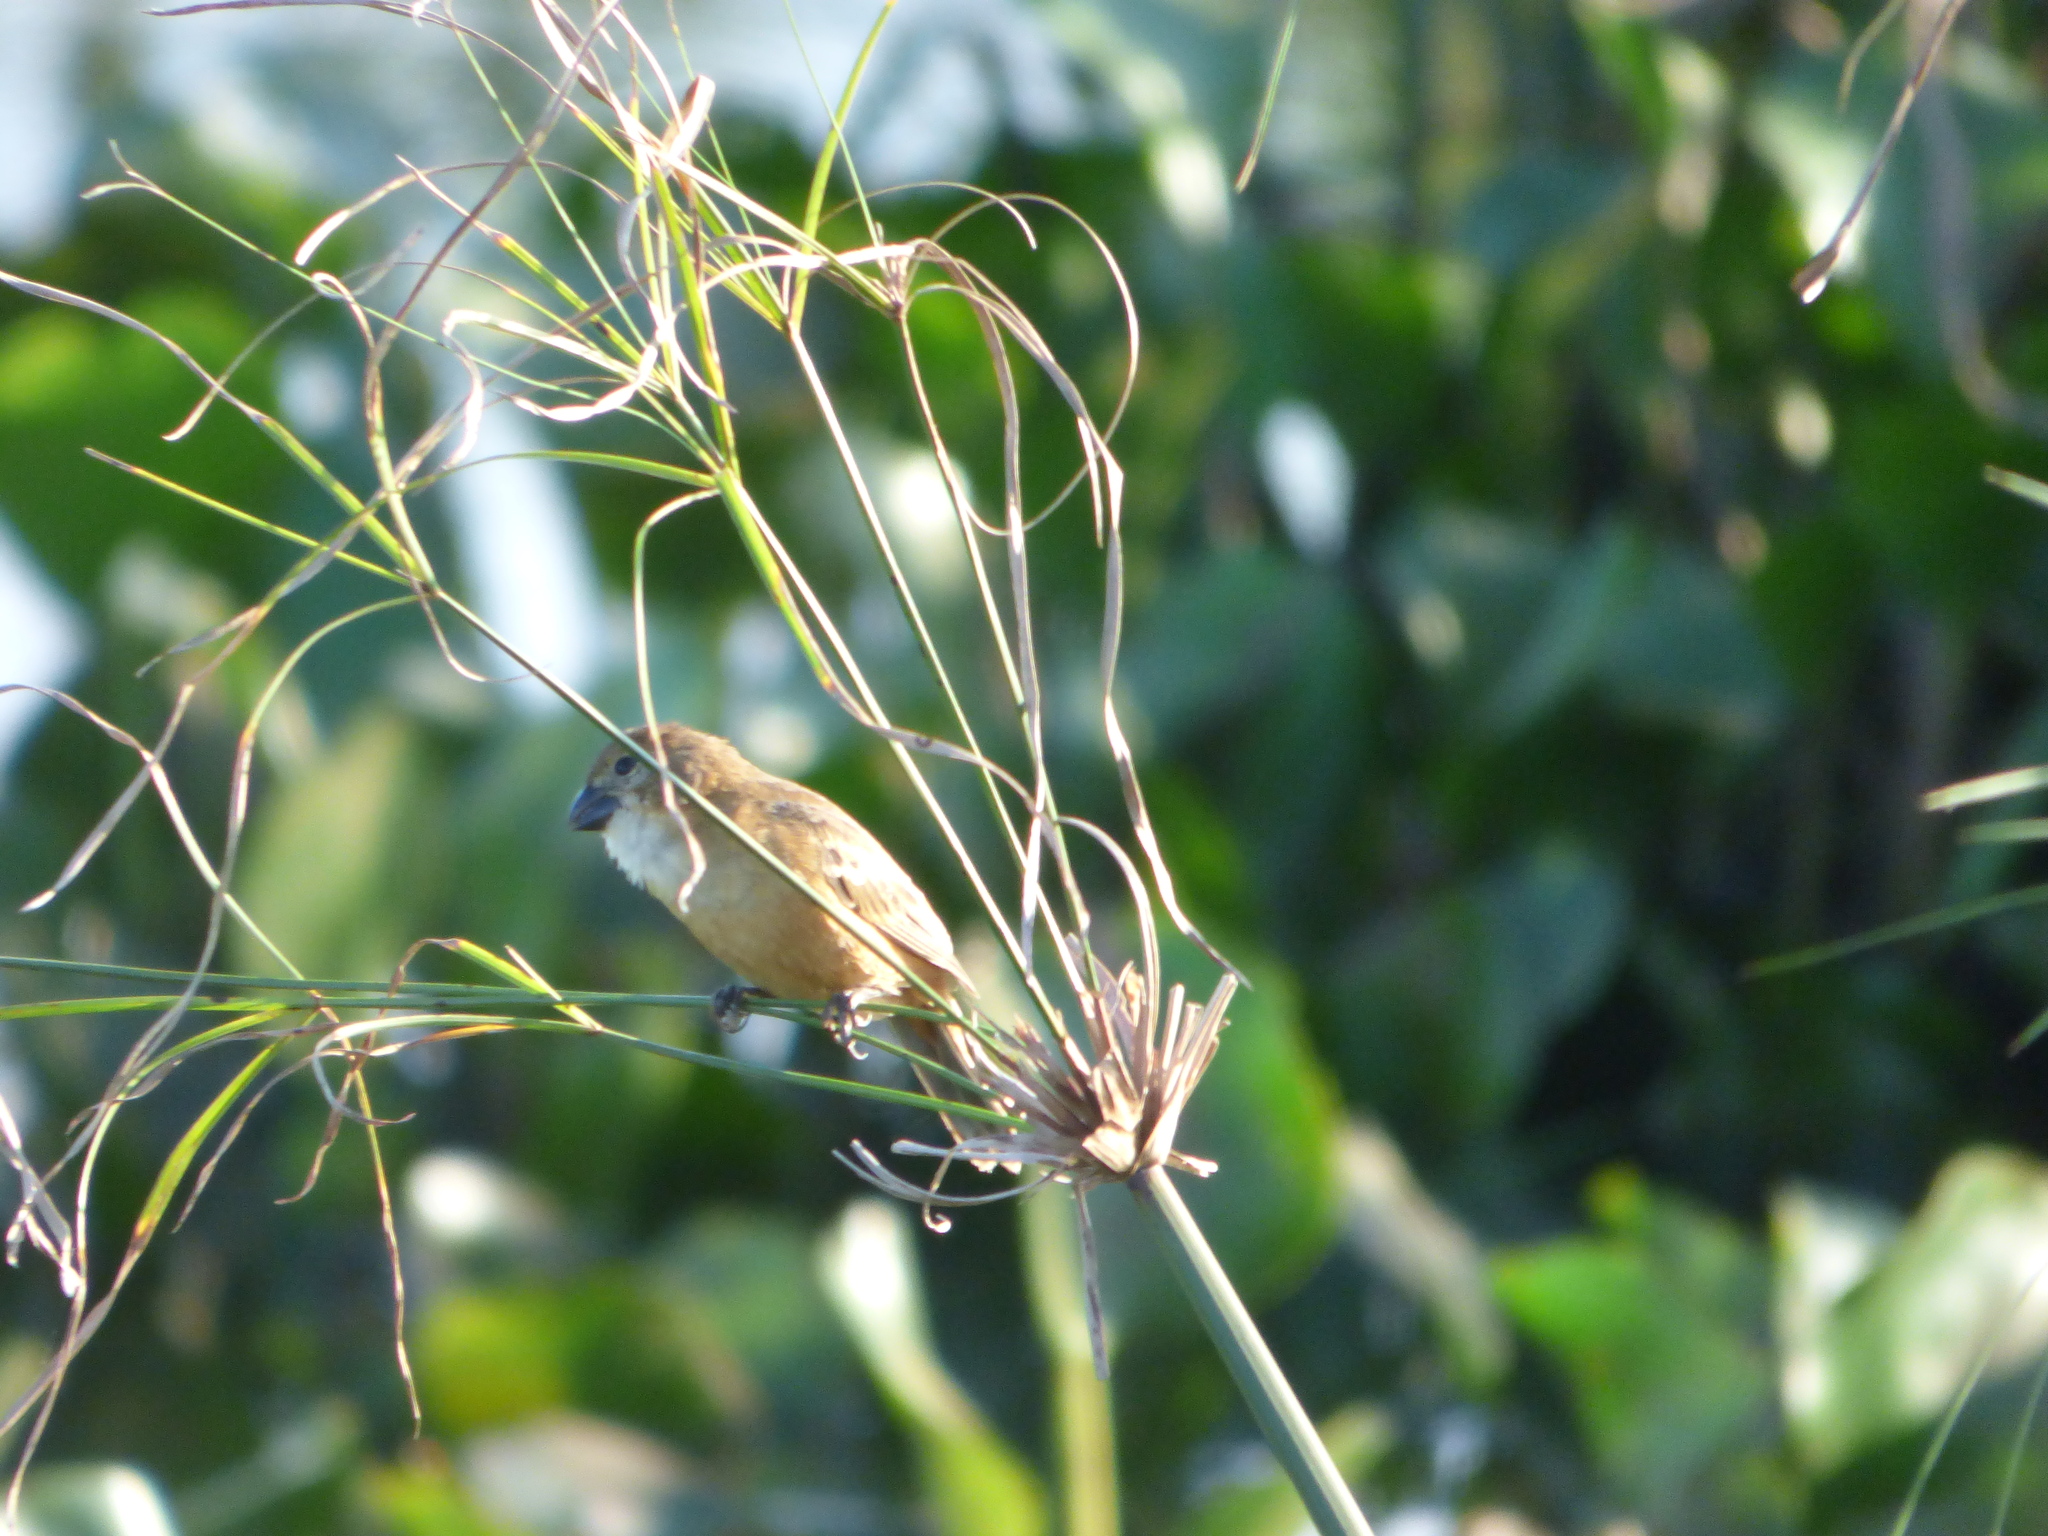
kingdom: Animalia
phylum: Chordata
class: Aves
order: Passeriformes
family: Thraupidae
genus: Sporophila
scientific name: Sporophila collaris
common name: Rusty-collared seedeater
